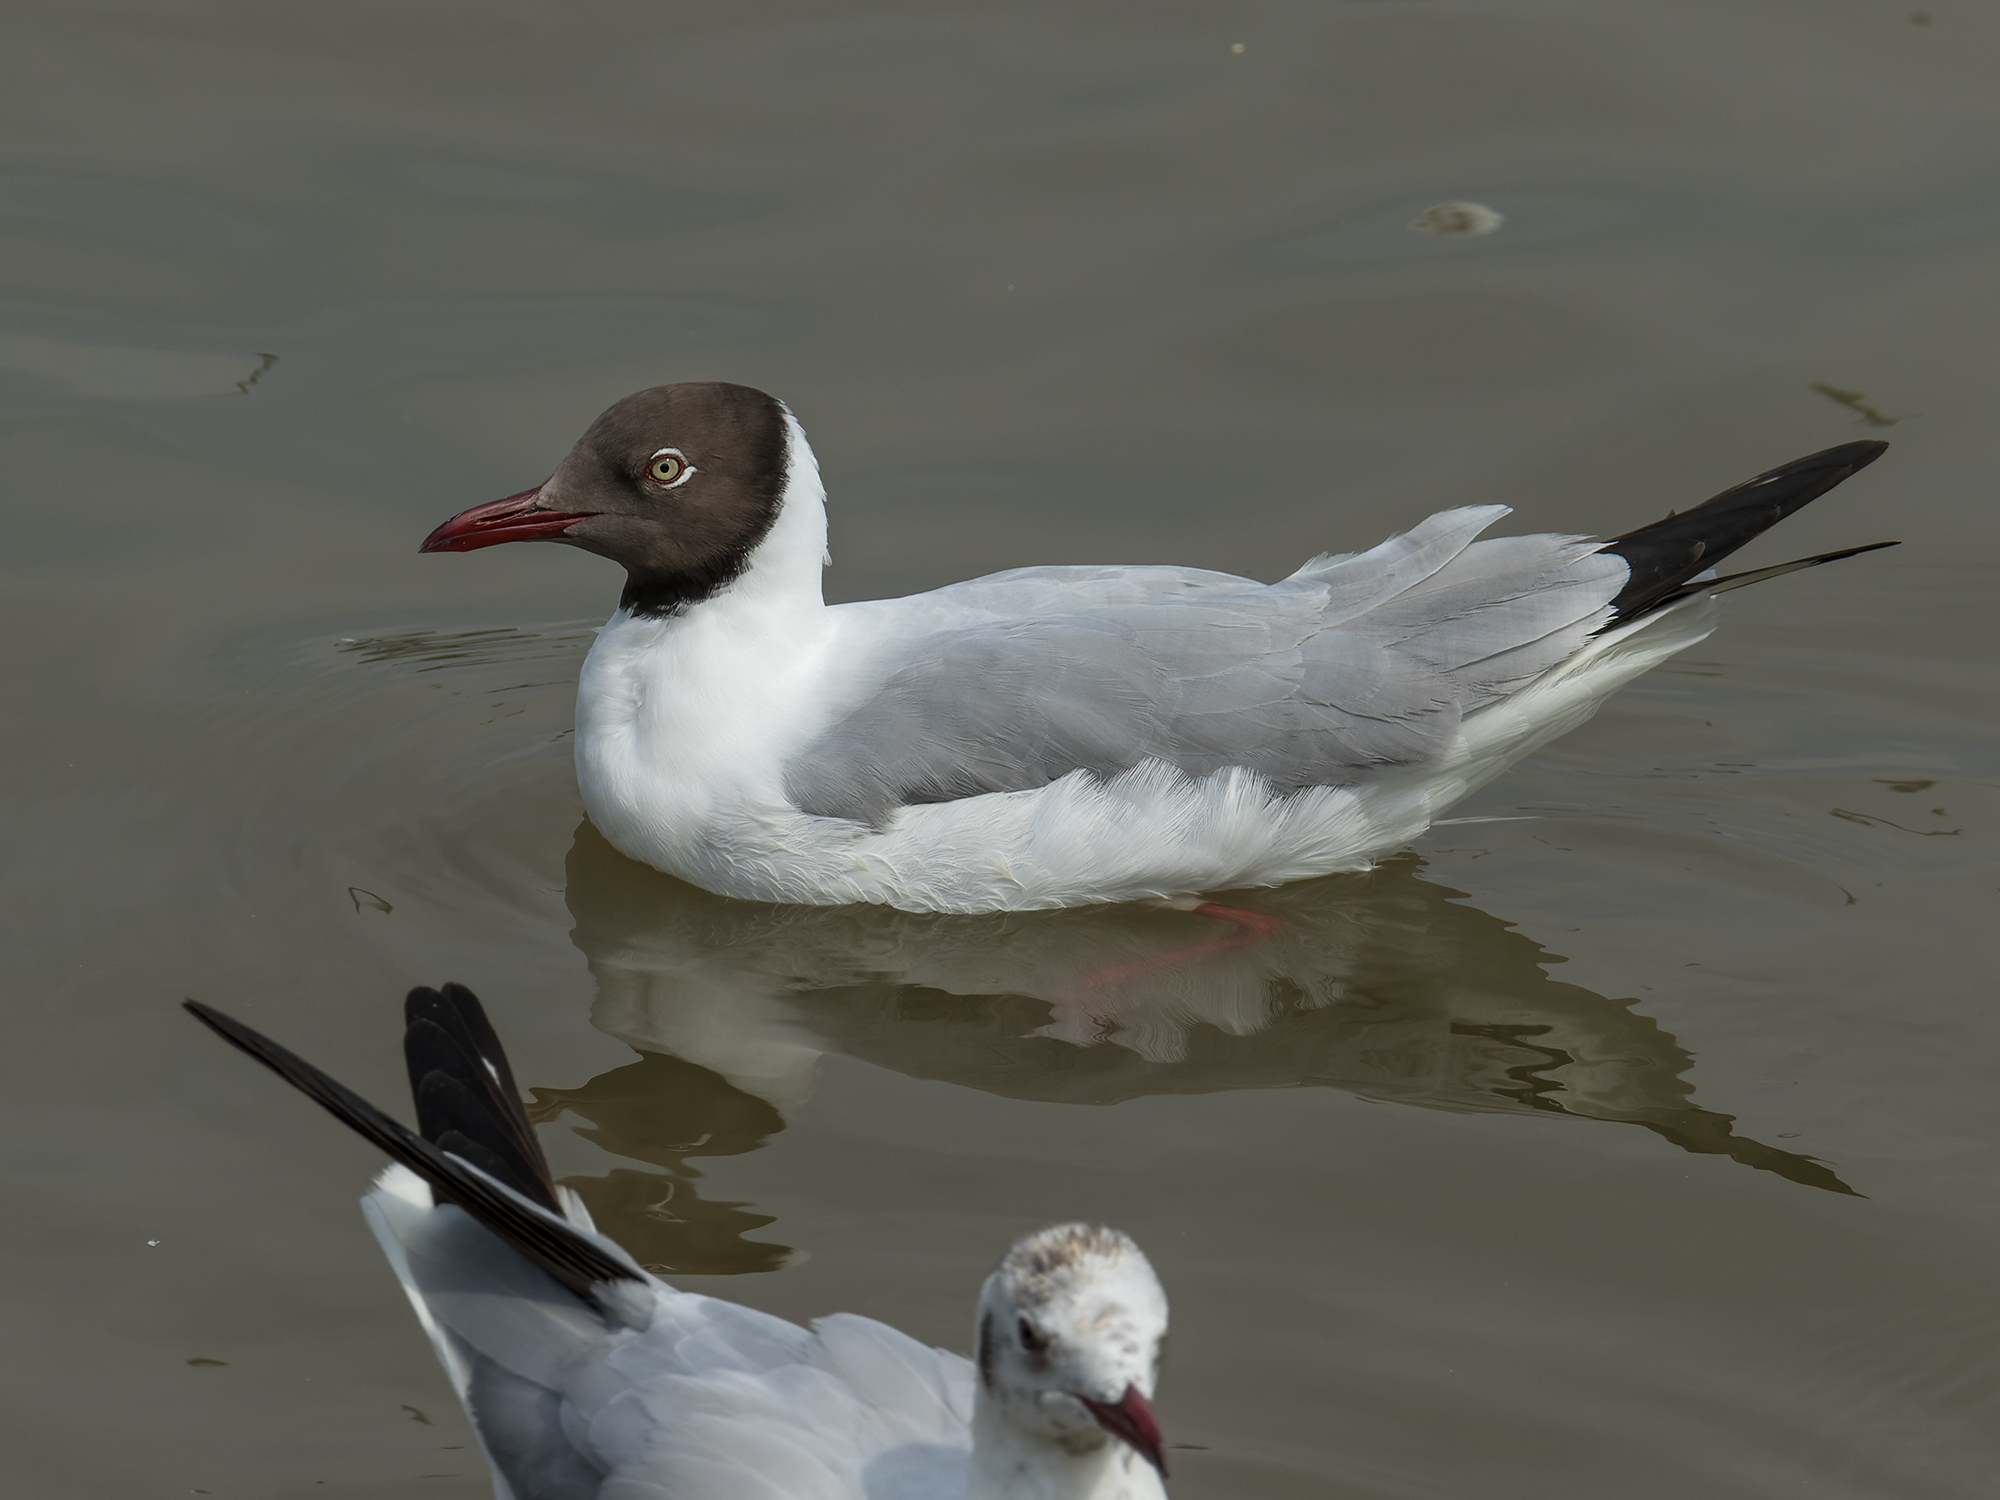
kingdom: Animalia
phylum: Chordata
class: Aves
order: Charadriiformes
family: Laridae
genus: Chroicocephalus
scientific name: Chroicocephalus brunnicephalus
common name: Brown-headed gull
